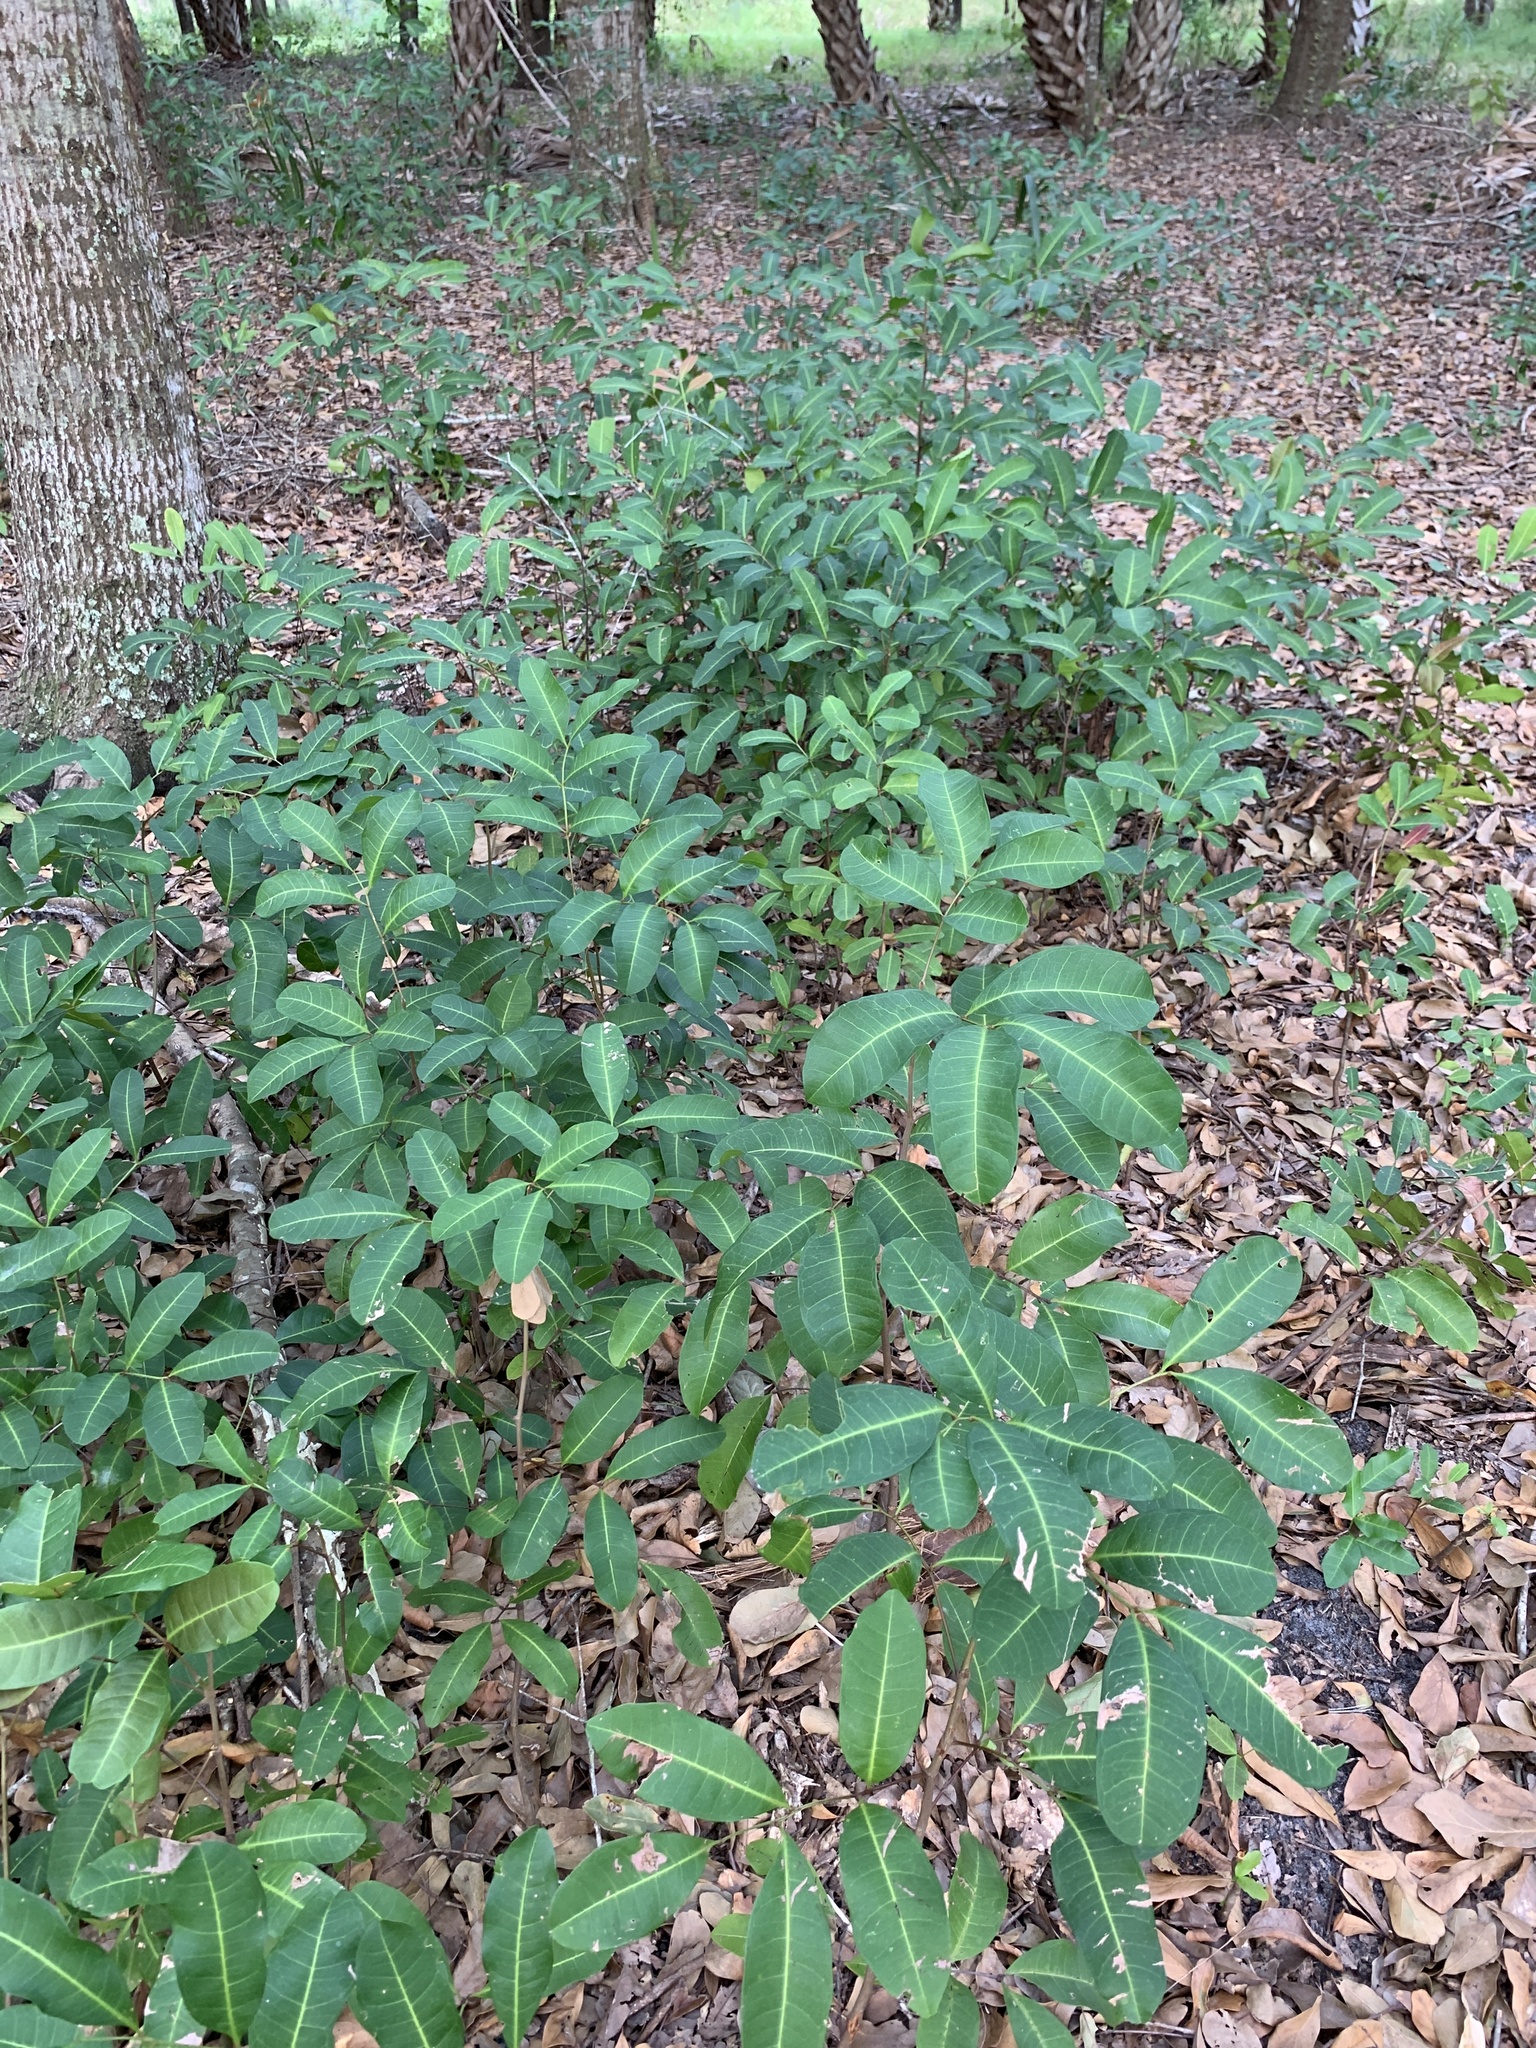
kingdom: Plantae
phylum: Tracheophyta
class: Magnoliopsida
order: Sapindales
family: Sapindaceae
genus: Cupaniopsis
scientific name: Cupaniopsis anacardioides
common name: Carrotwood
